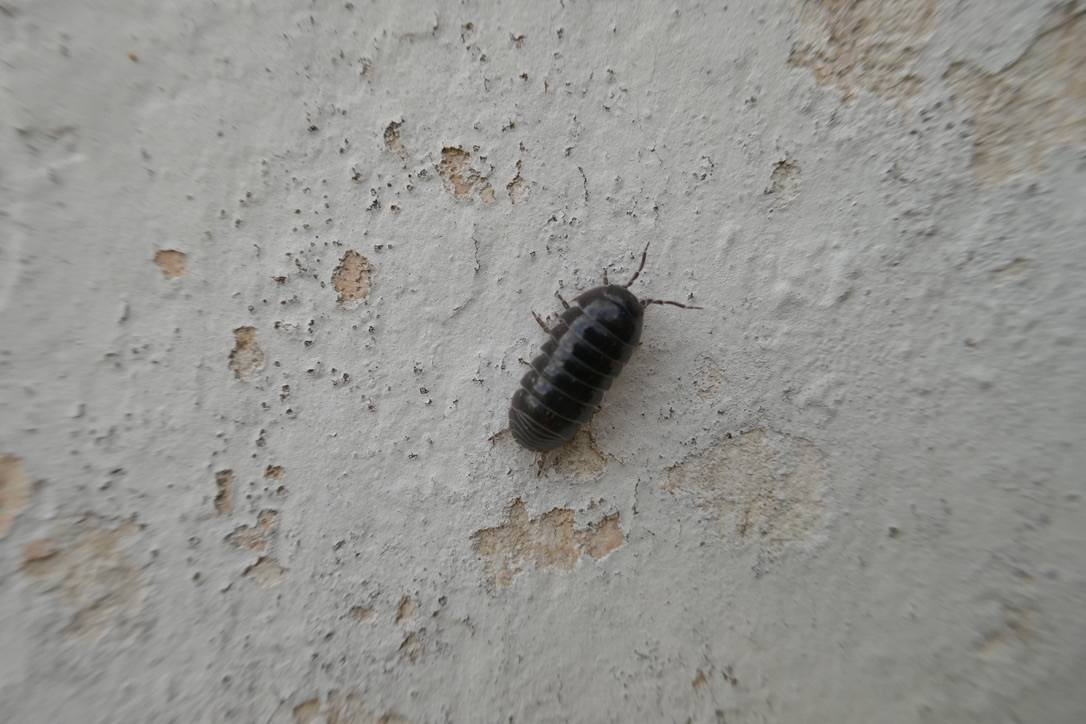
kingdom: Animalia
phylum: Arthropoda
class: Malacostraca
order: Isopoda
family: Armadillidiidae
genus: Armadillidium
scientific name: Armadillidium vulgare
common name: Common pill woodlouse
